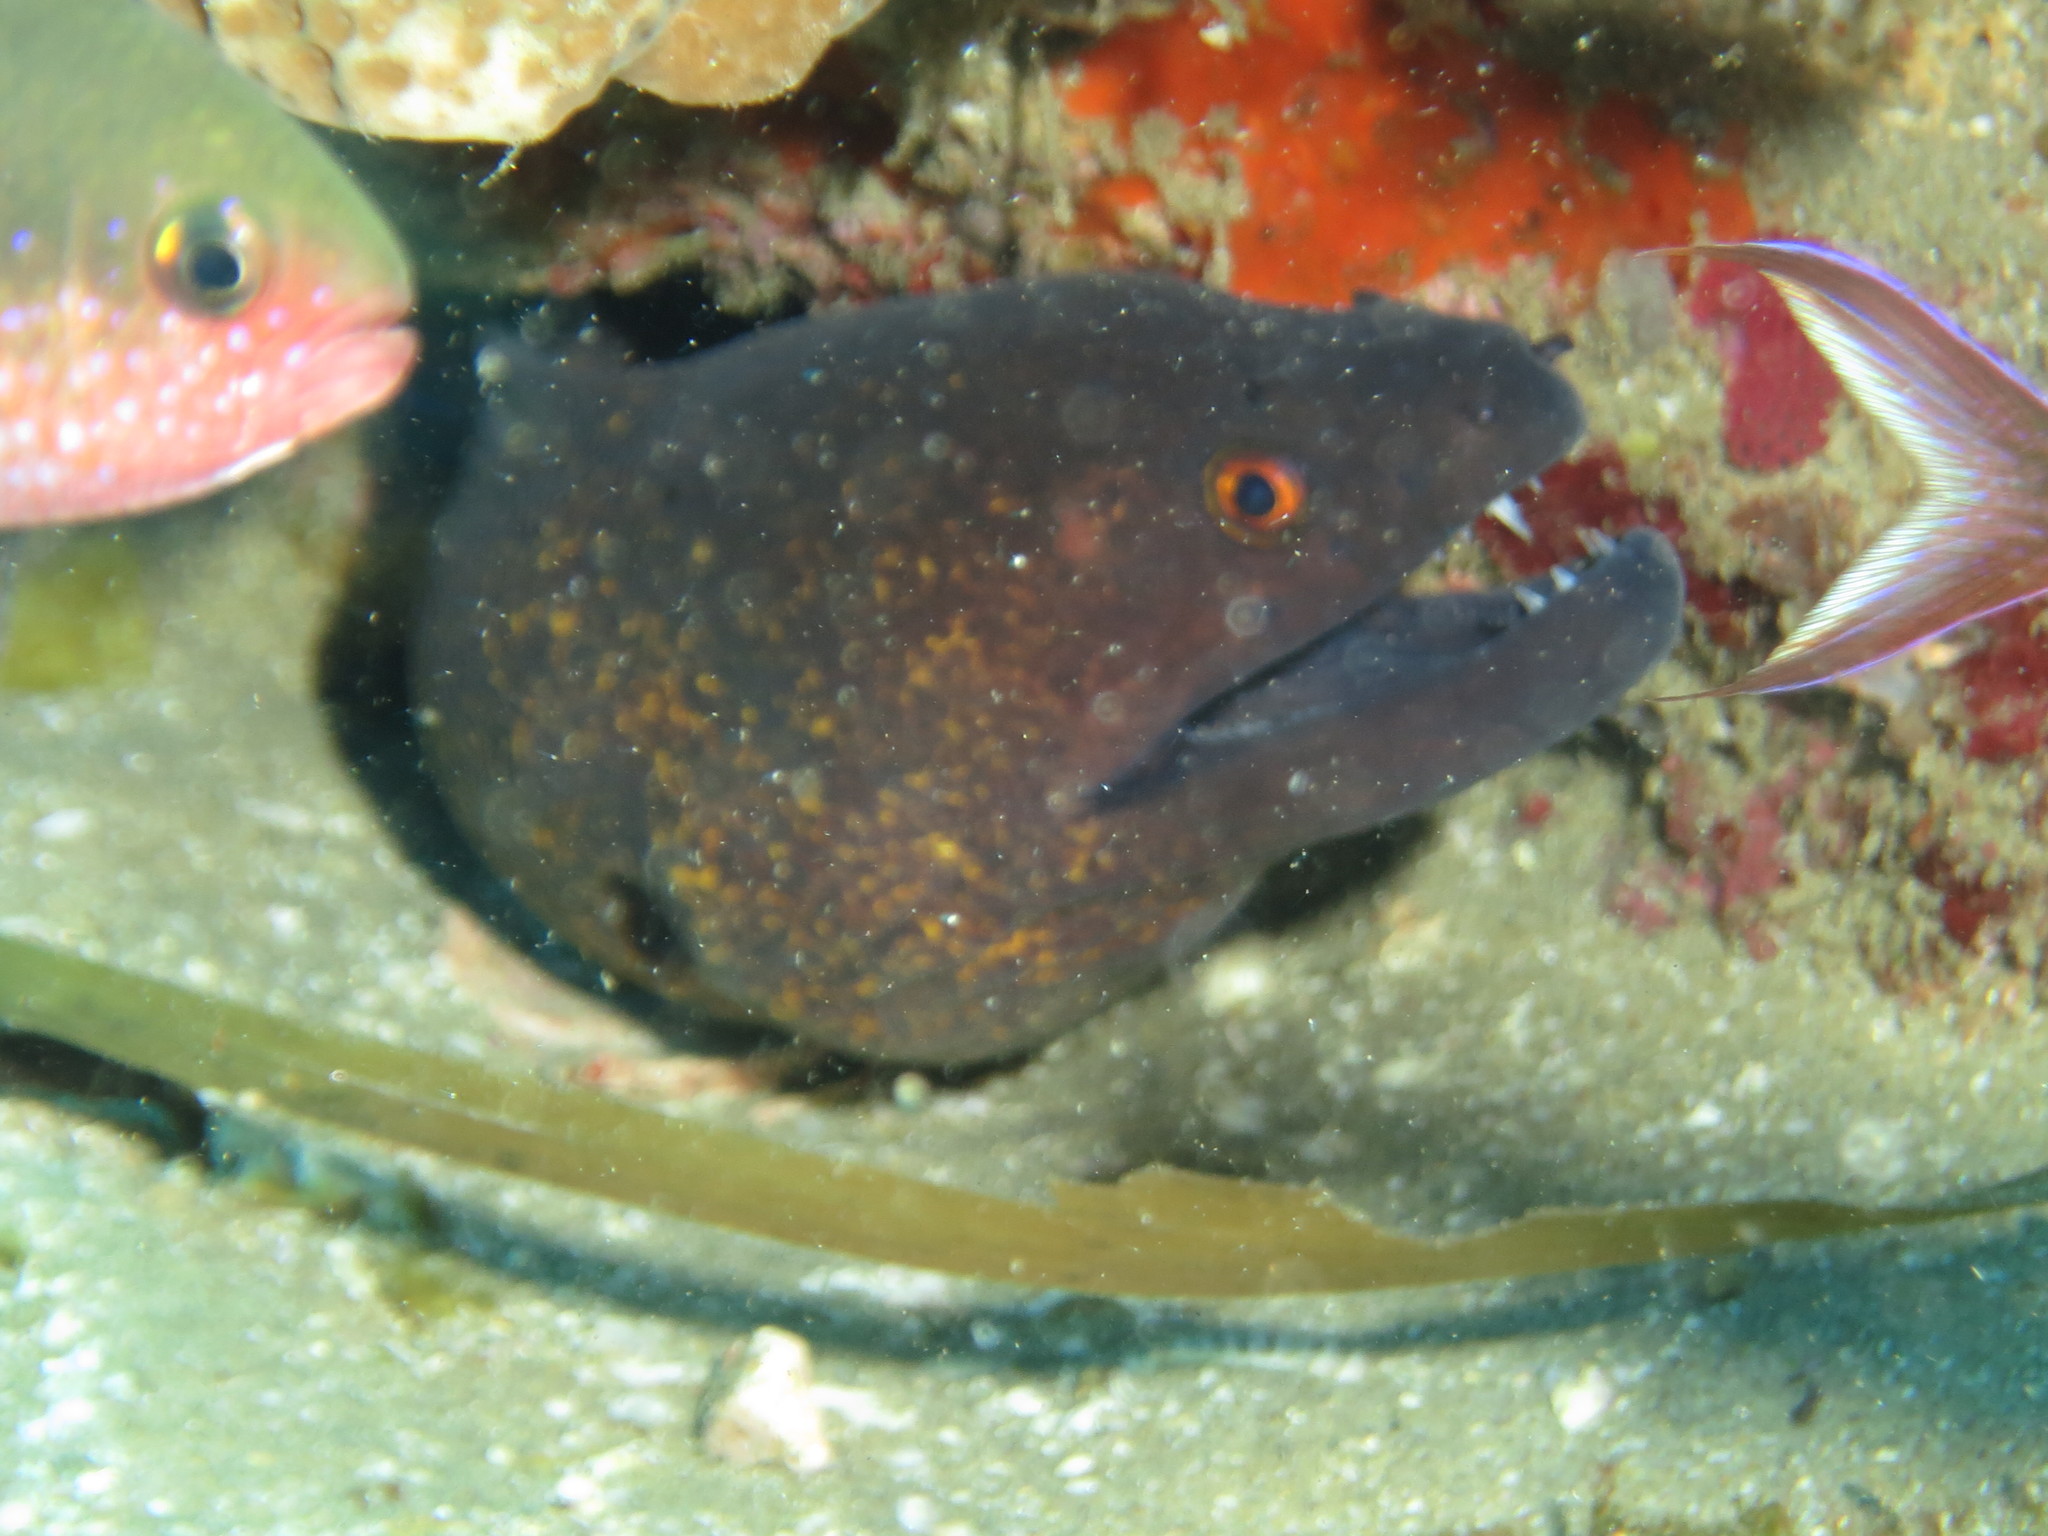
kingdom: Animalia
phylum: Chordata
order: Anguilliformes
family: Muraenidae
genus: Gymnothorax
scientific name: Gymnothorax flavimarginatus
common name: Yellow-edged moray
